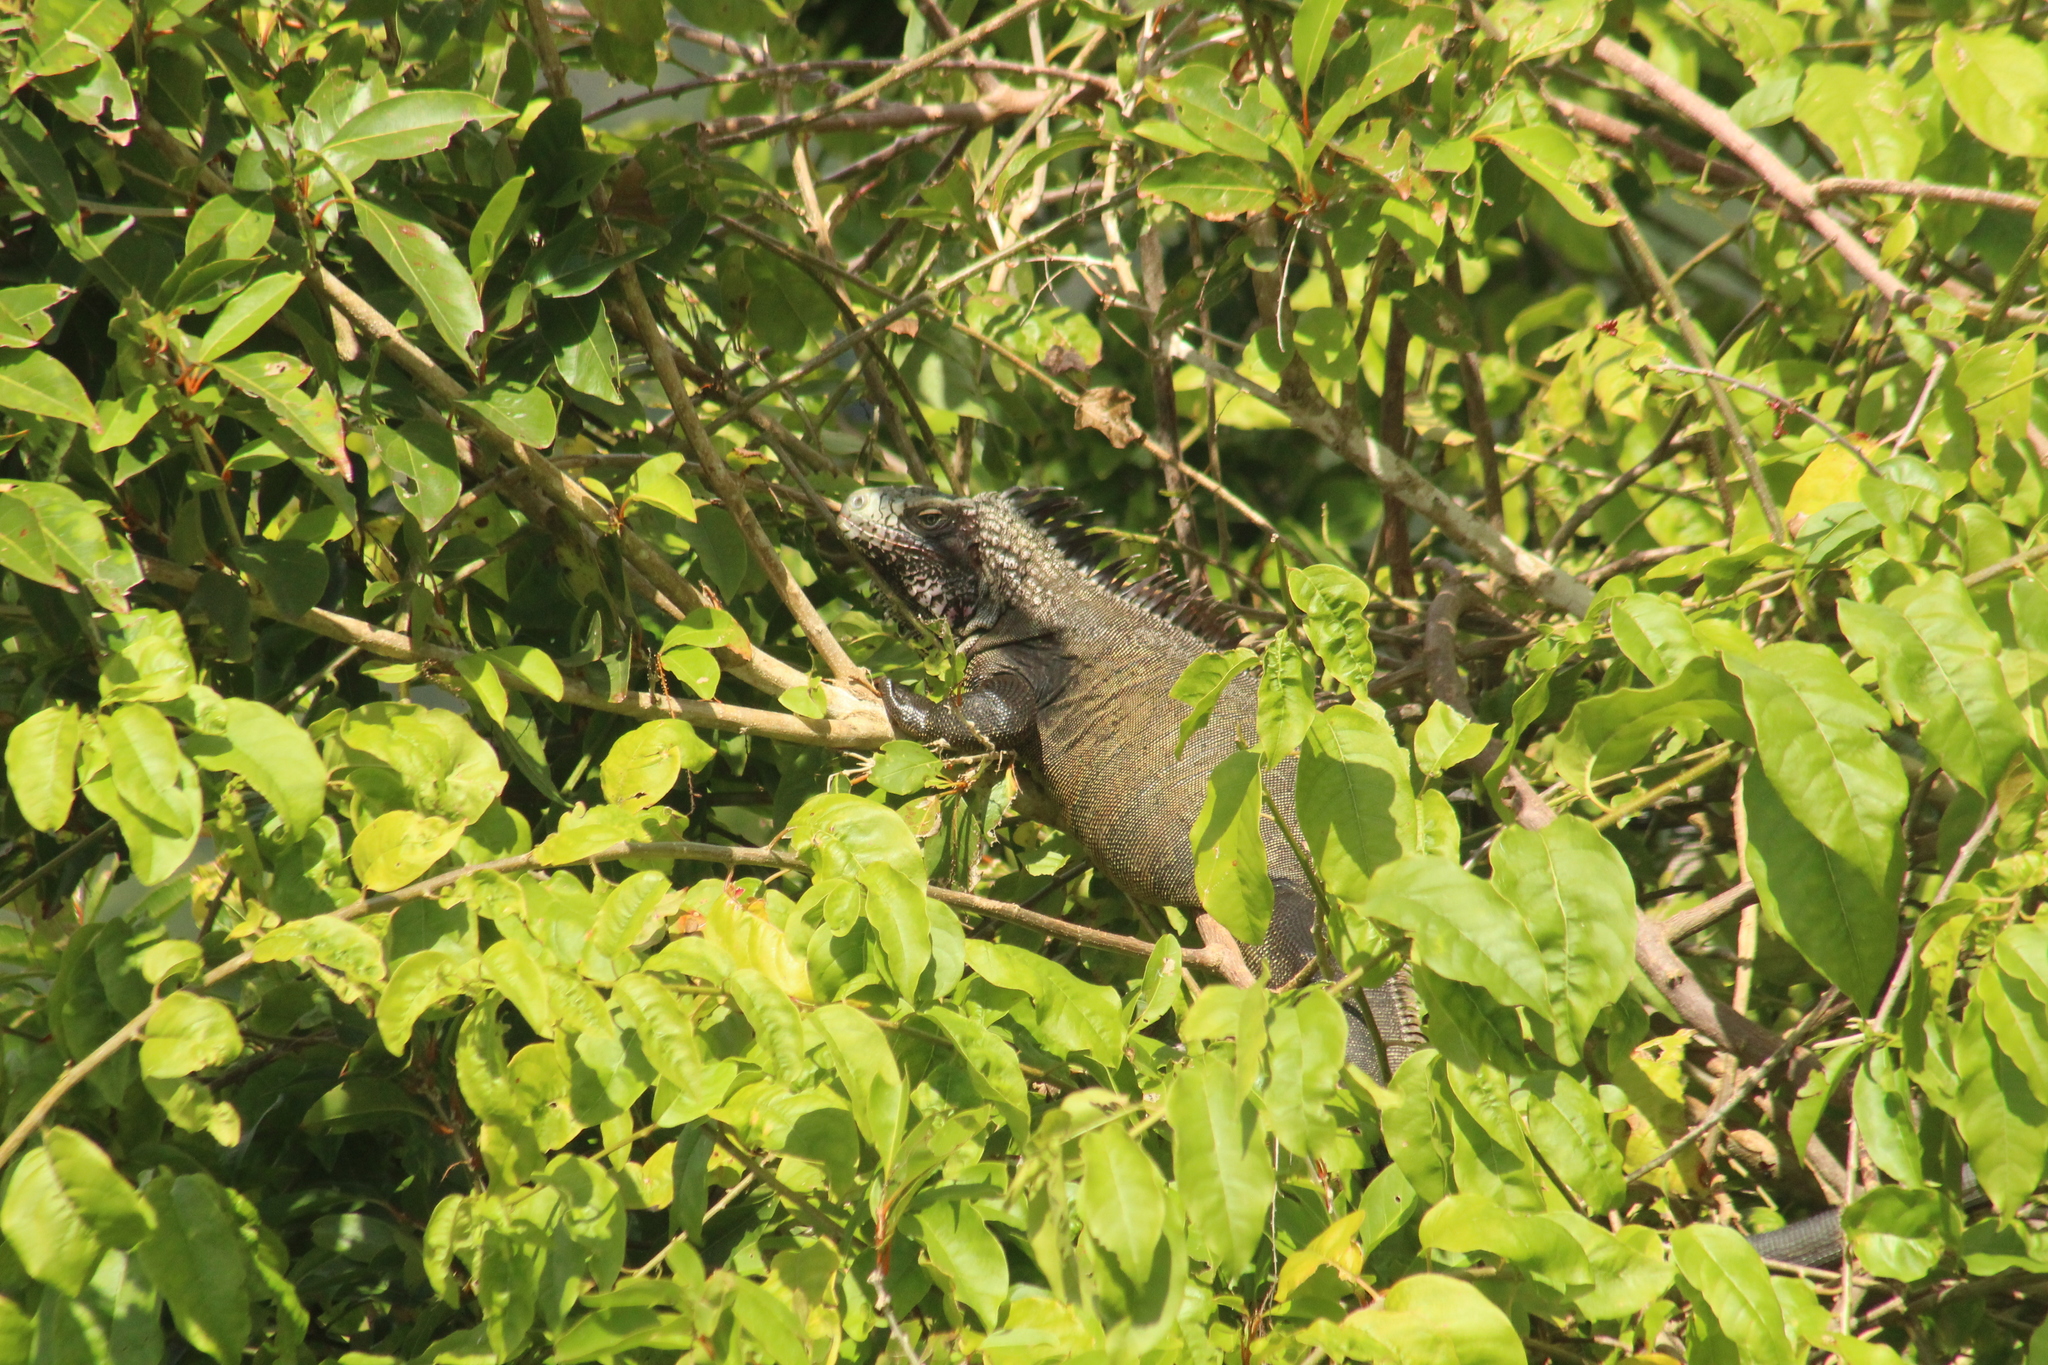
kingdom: Animalia
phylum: Chordata
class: Squamata
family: Iguanidae
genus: Iguana
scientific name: Iguana iguana
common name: Green iguana
